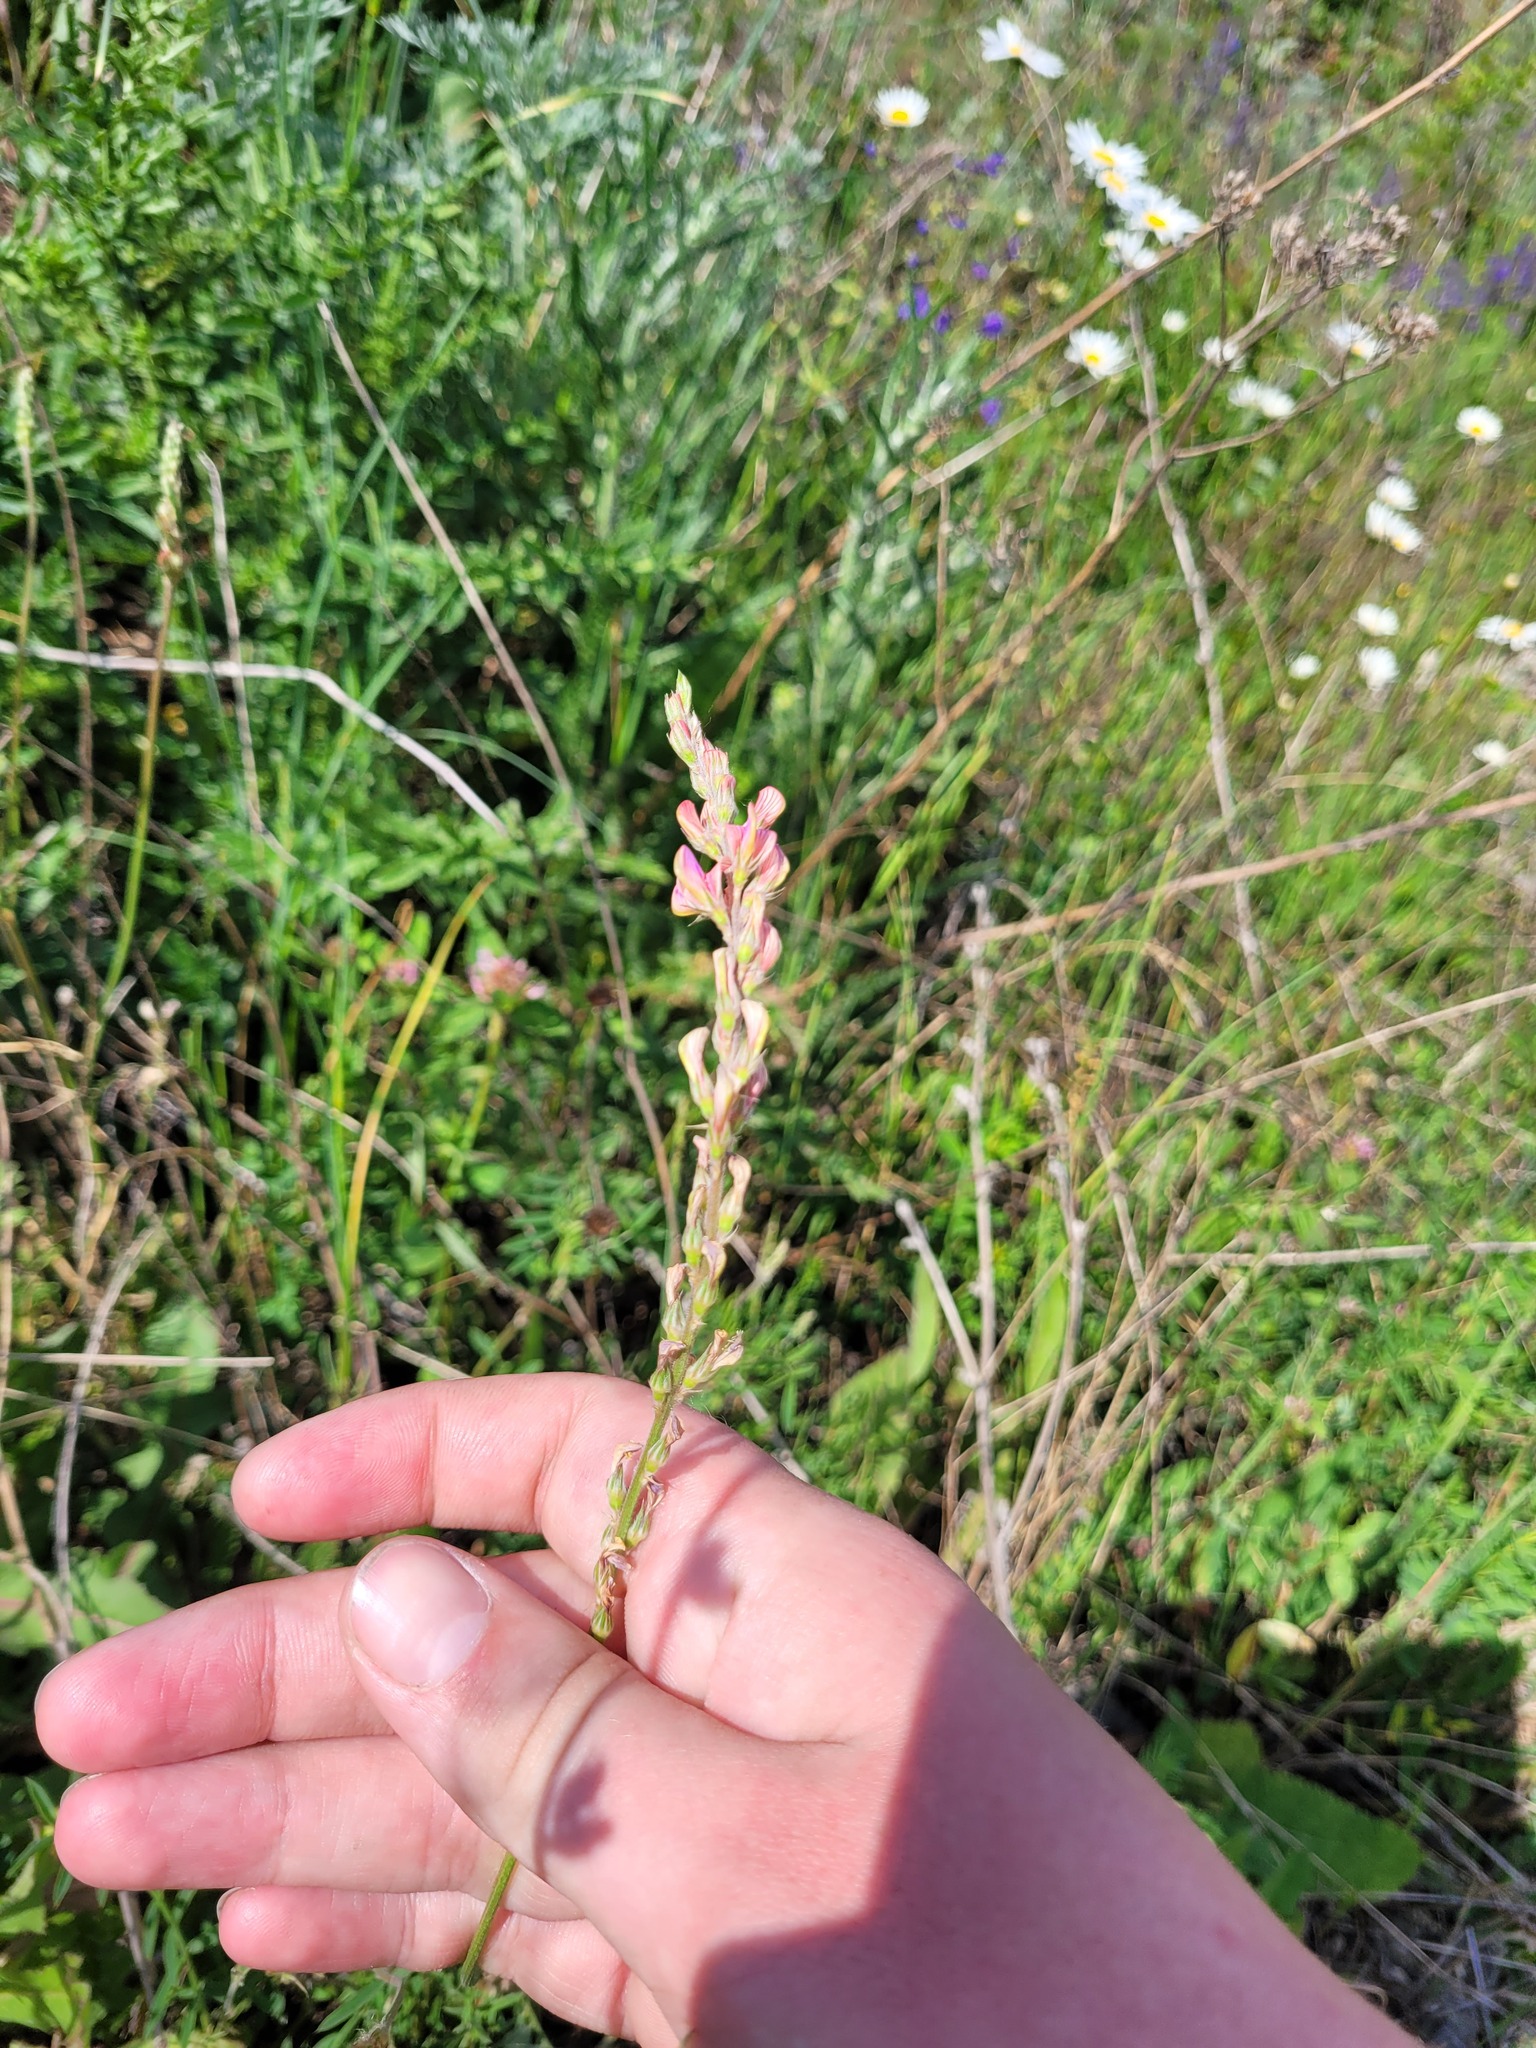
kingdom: Plantae
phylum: Tracheophyta
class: Magnoliopsida
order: Fabales
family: Fabaceae
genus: Onobrychis
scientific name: Onobrychis viciifolia
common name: Sainfoin
